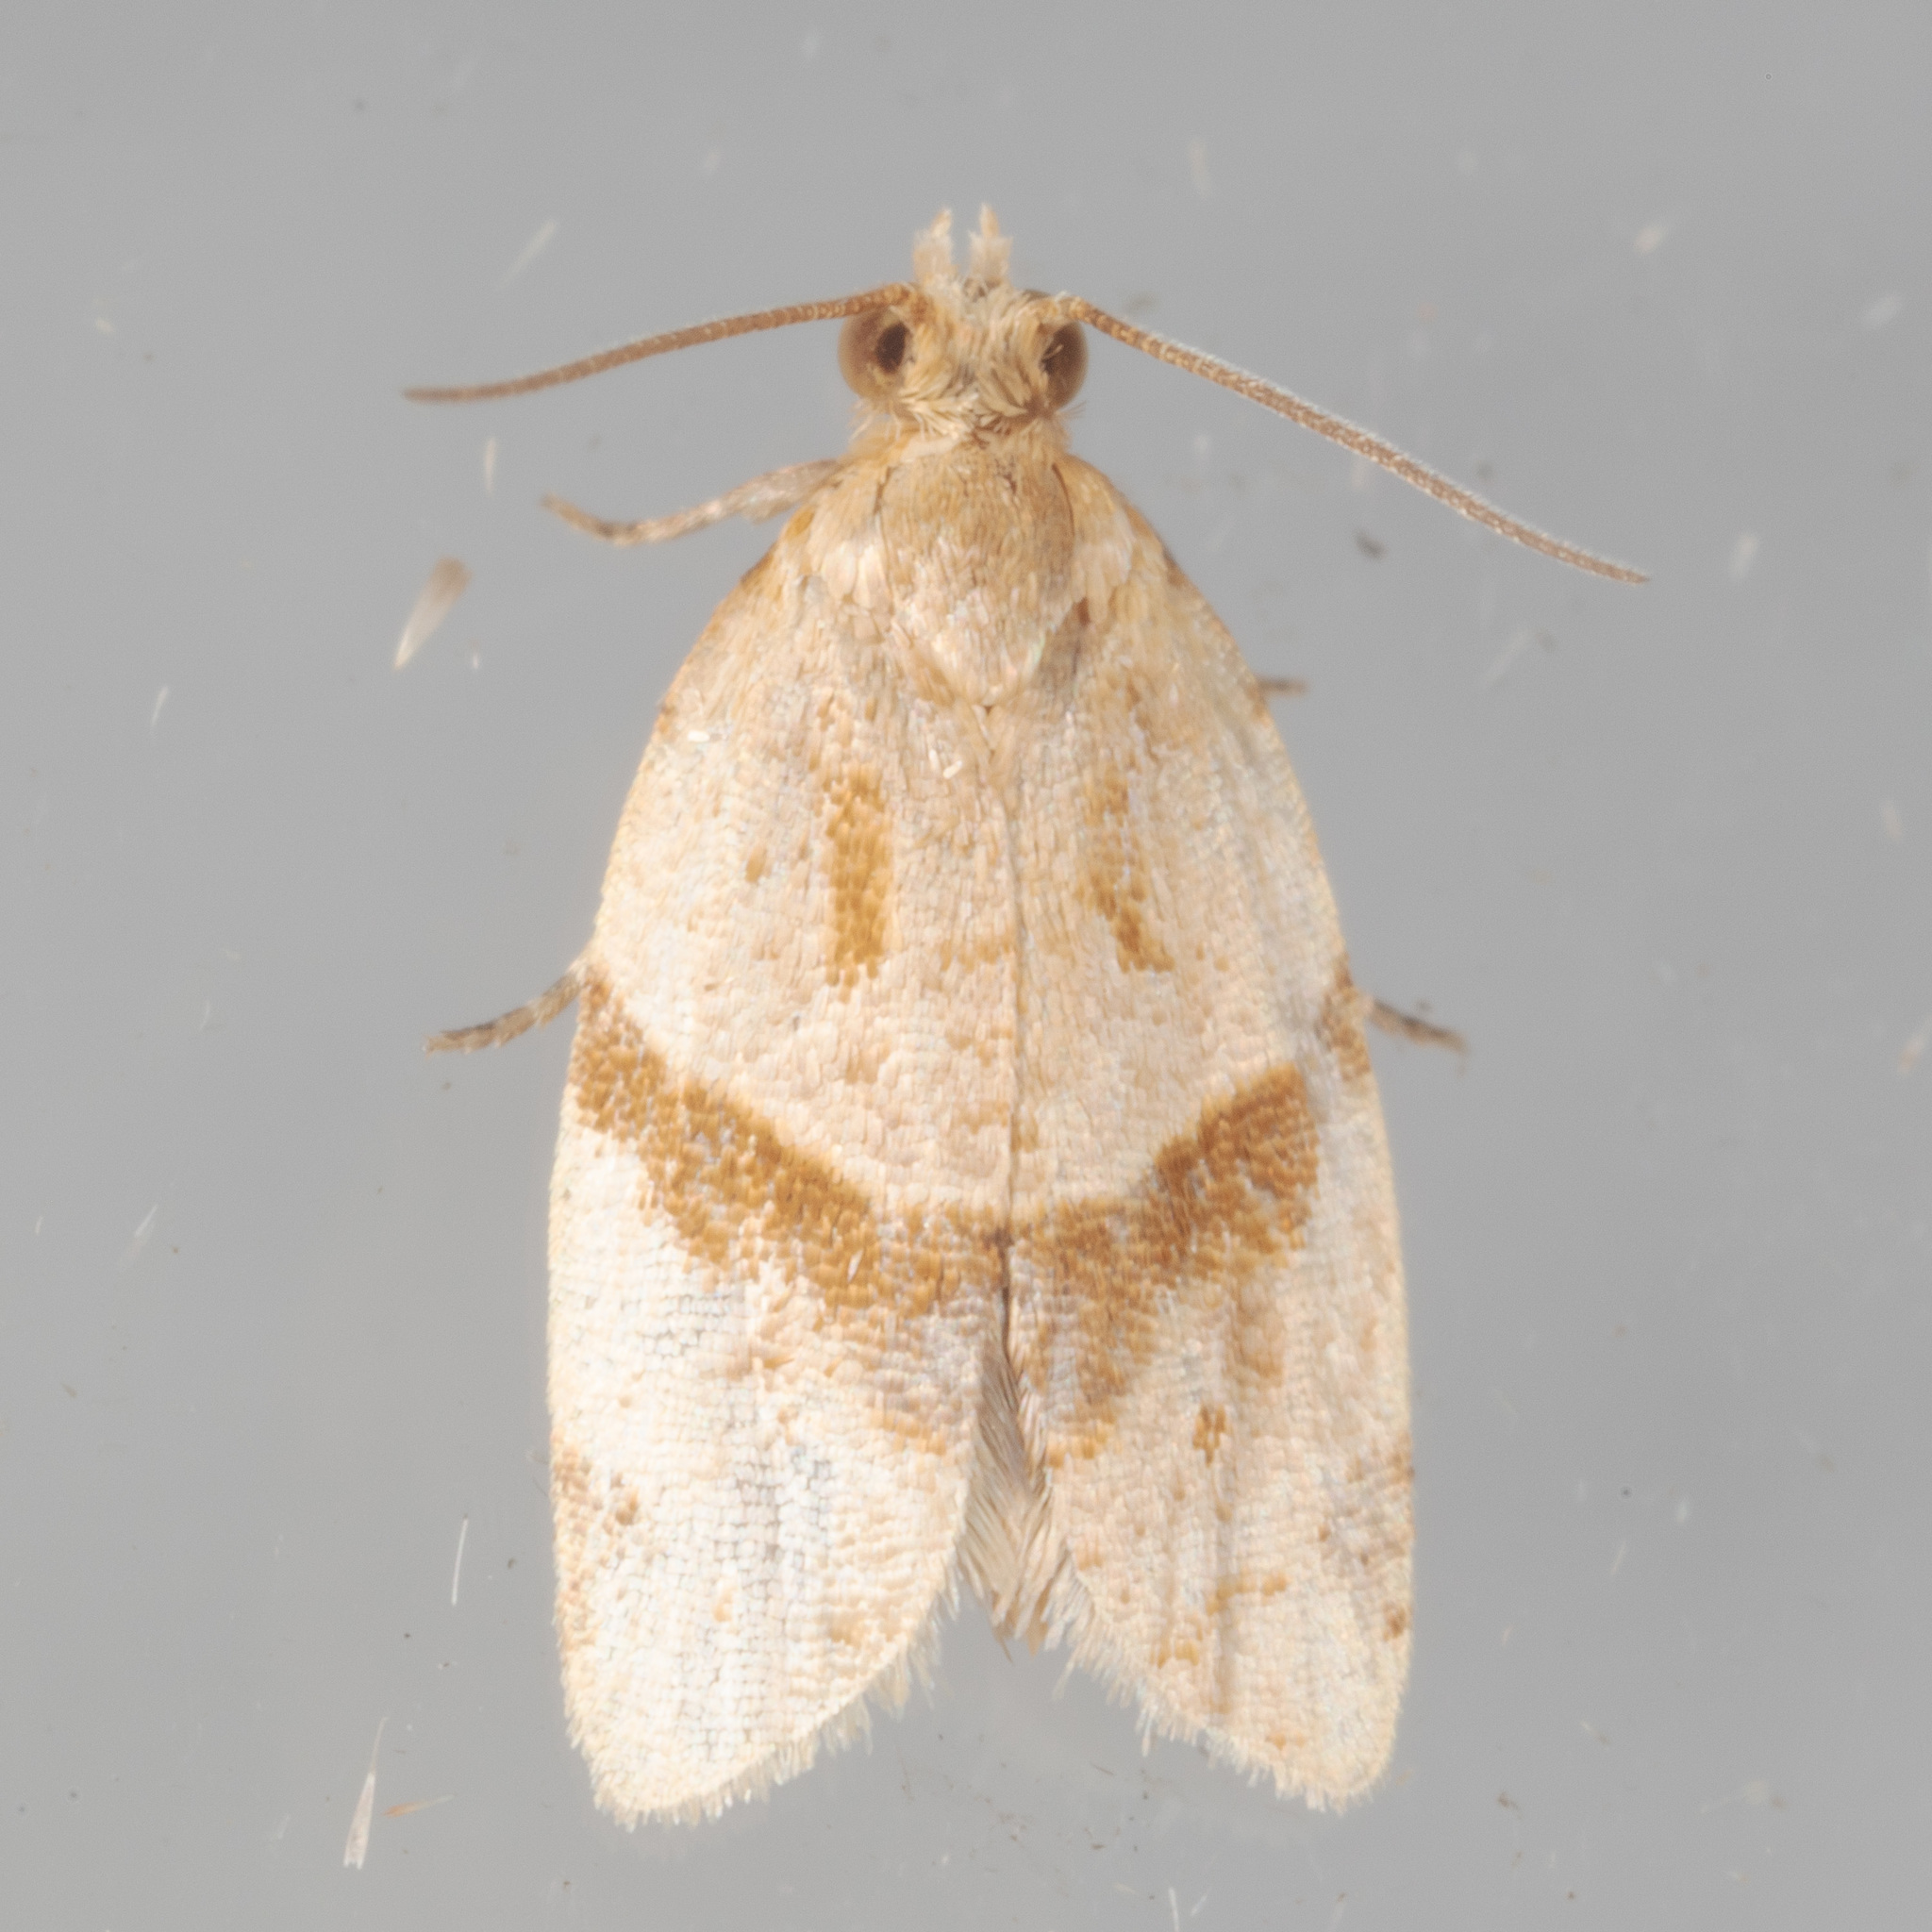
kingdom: Animalia
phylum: Arthropoda
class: Insecta
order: Lepidoptera
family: Tortricidae
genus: Clepsis
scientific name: Clepsis peritana
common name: Garden tortrix
